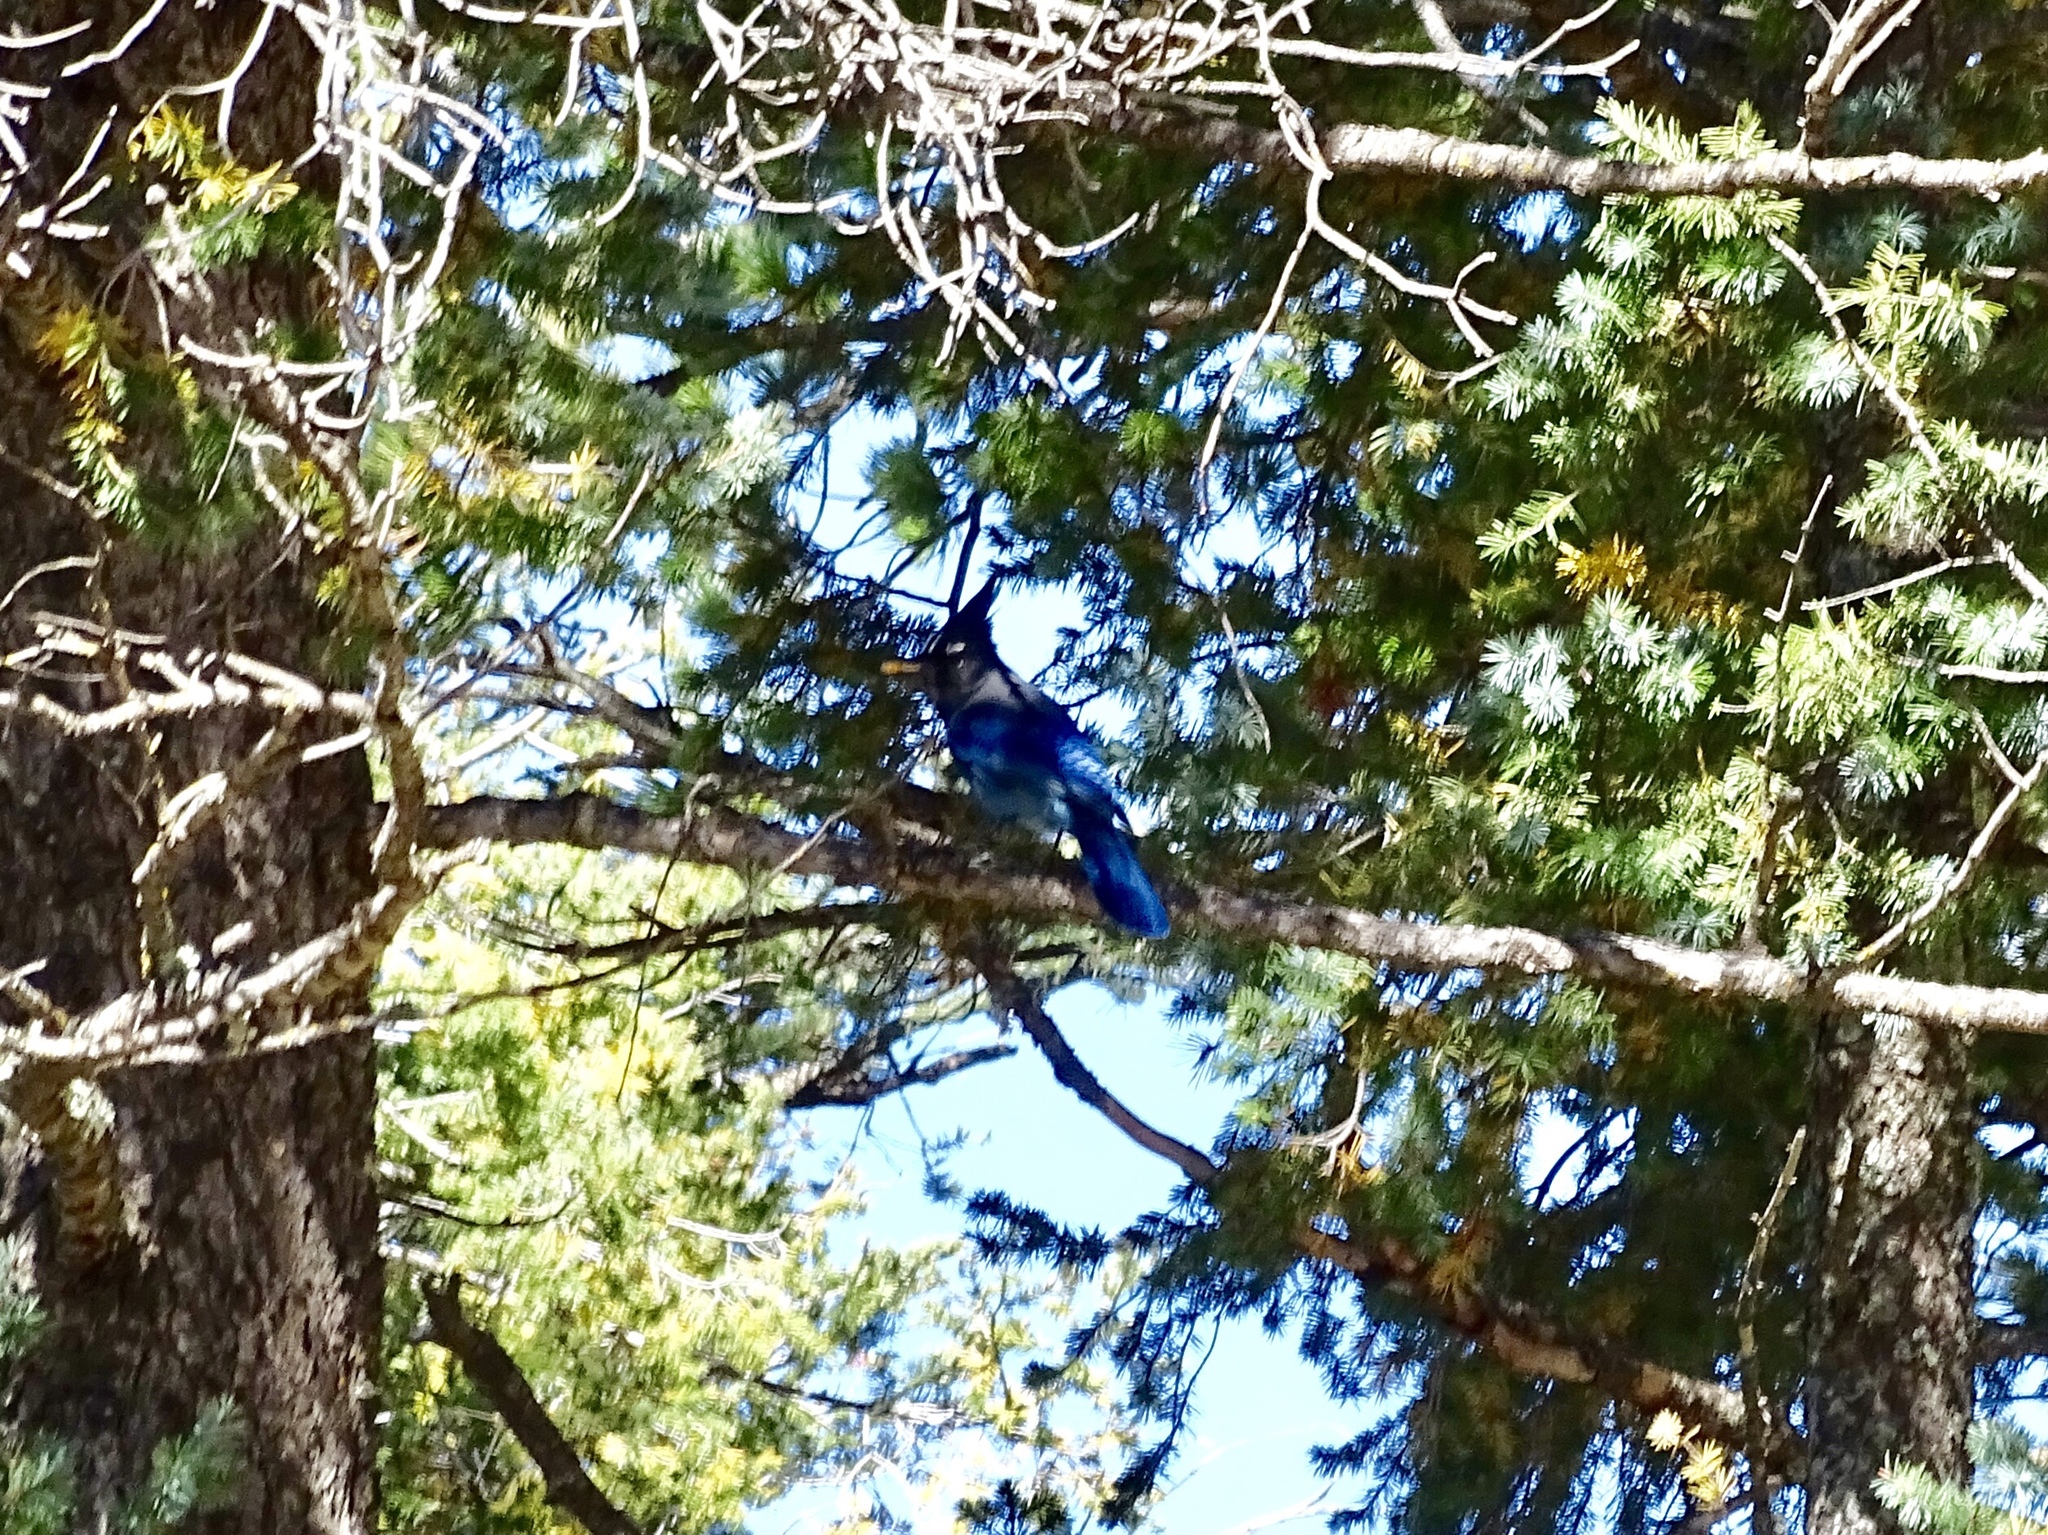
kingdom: Animalia
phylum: Chordata
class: Aves
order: Passeriformes
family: Corvidae
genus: Cyanocitta
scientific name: Cyanocitta stelleri
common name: Steller's jay
